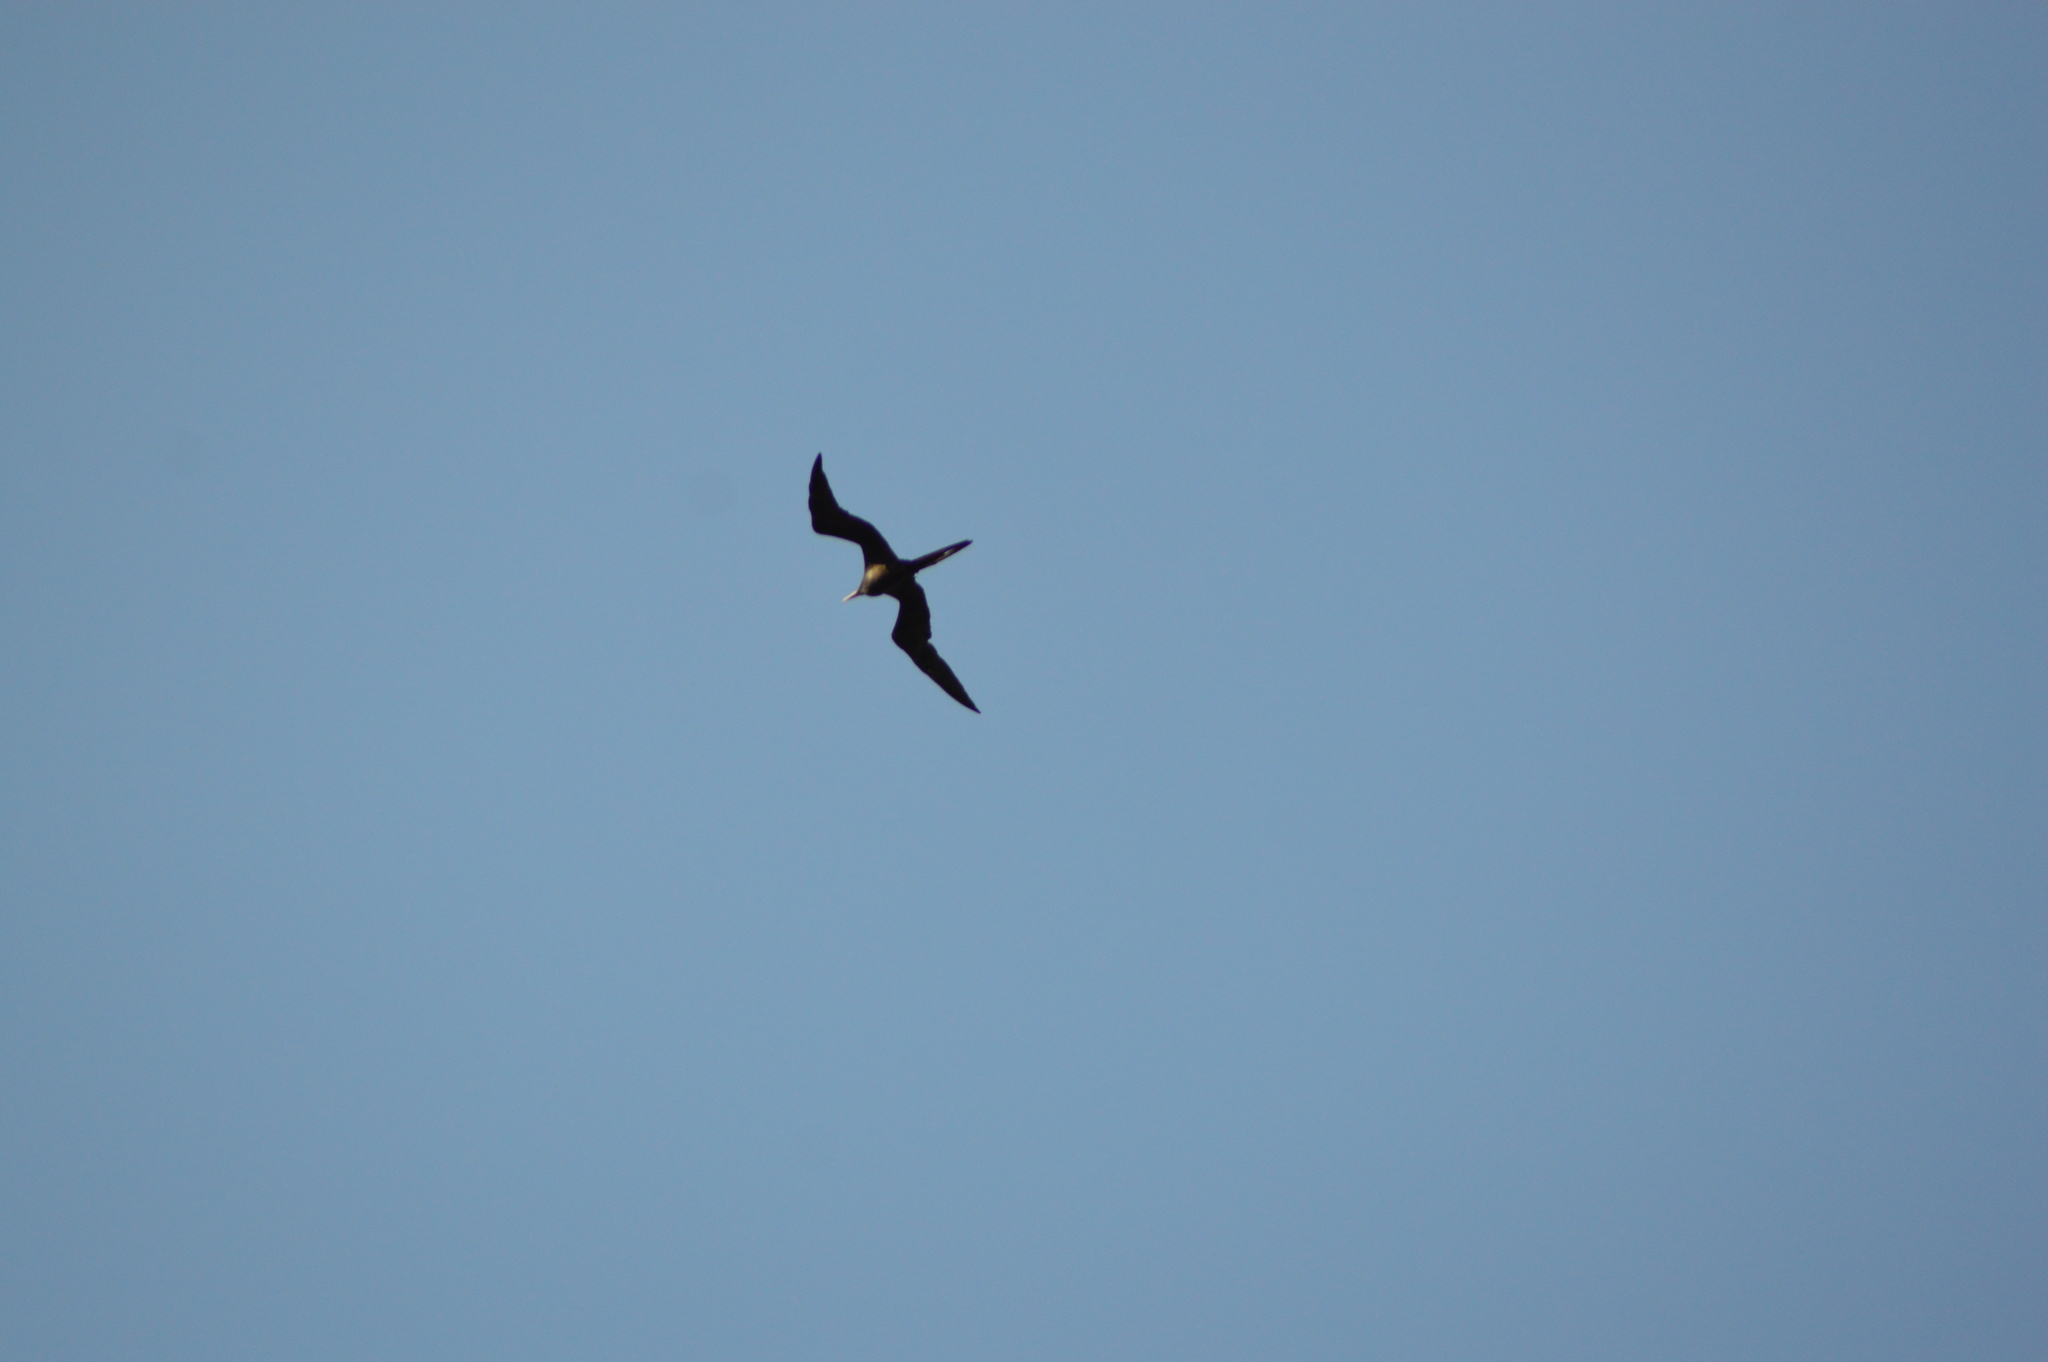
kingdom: Animalia
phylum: Chordata
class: Aves
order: Suliformes
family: Fregatidae
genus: Fregata
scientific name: Fregata magnificens
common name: Magnificent frigatebird
